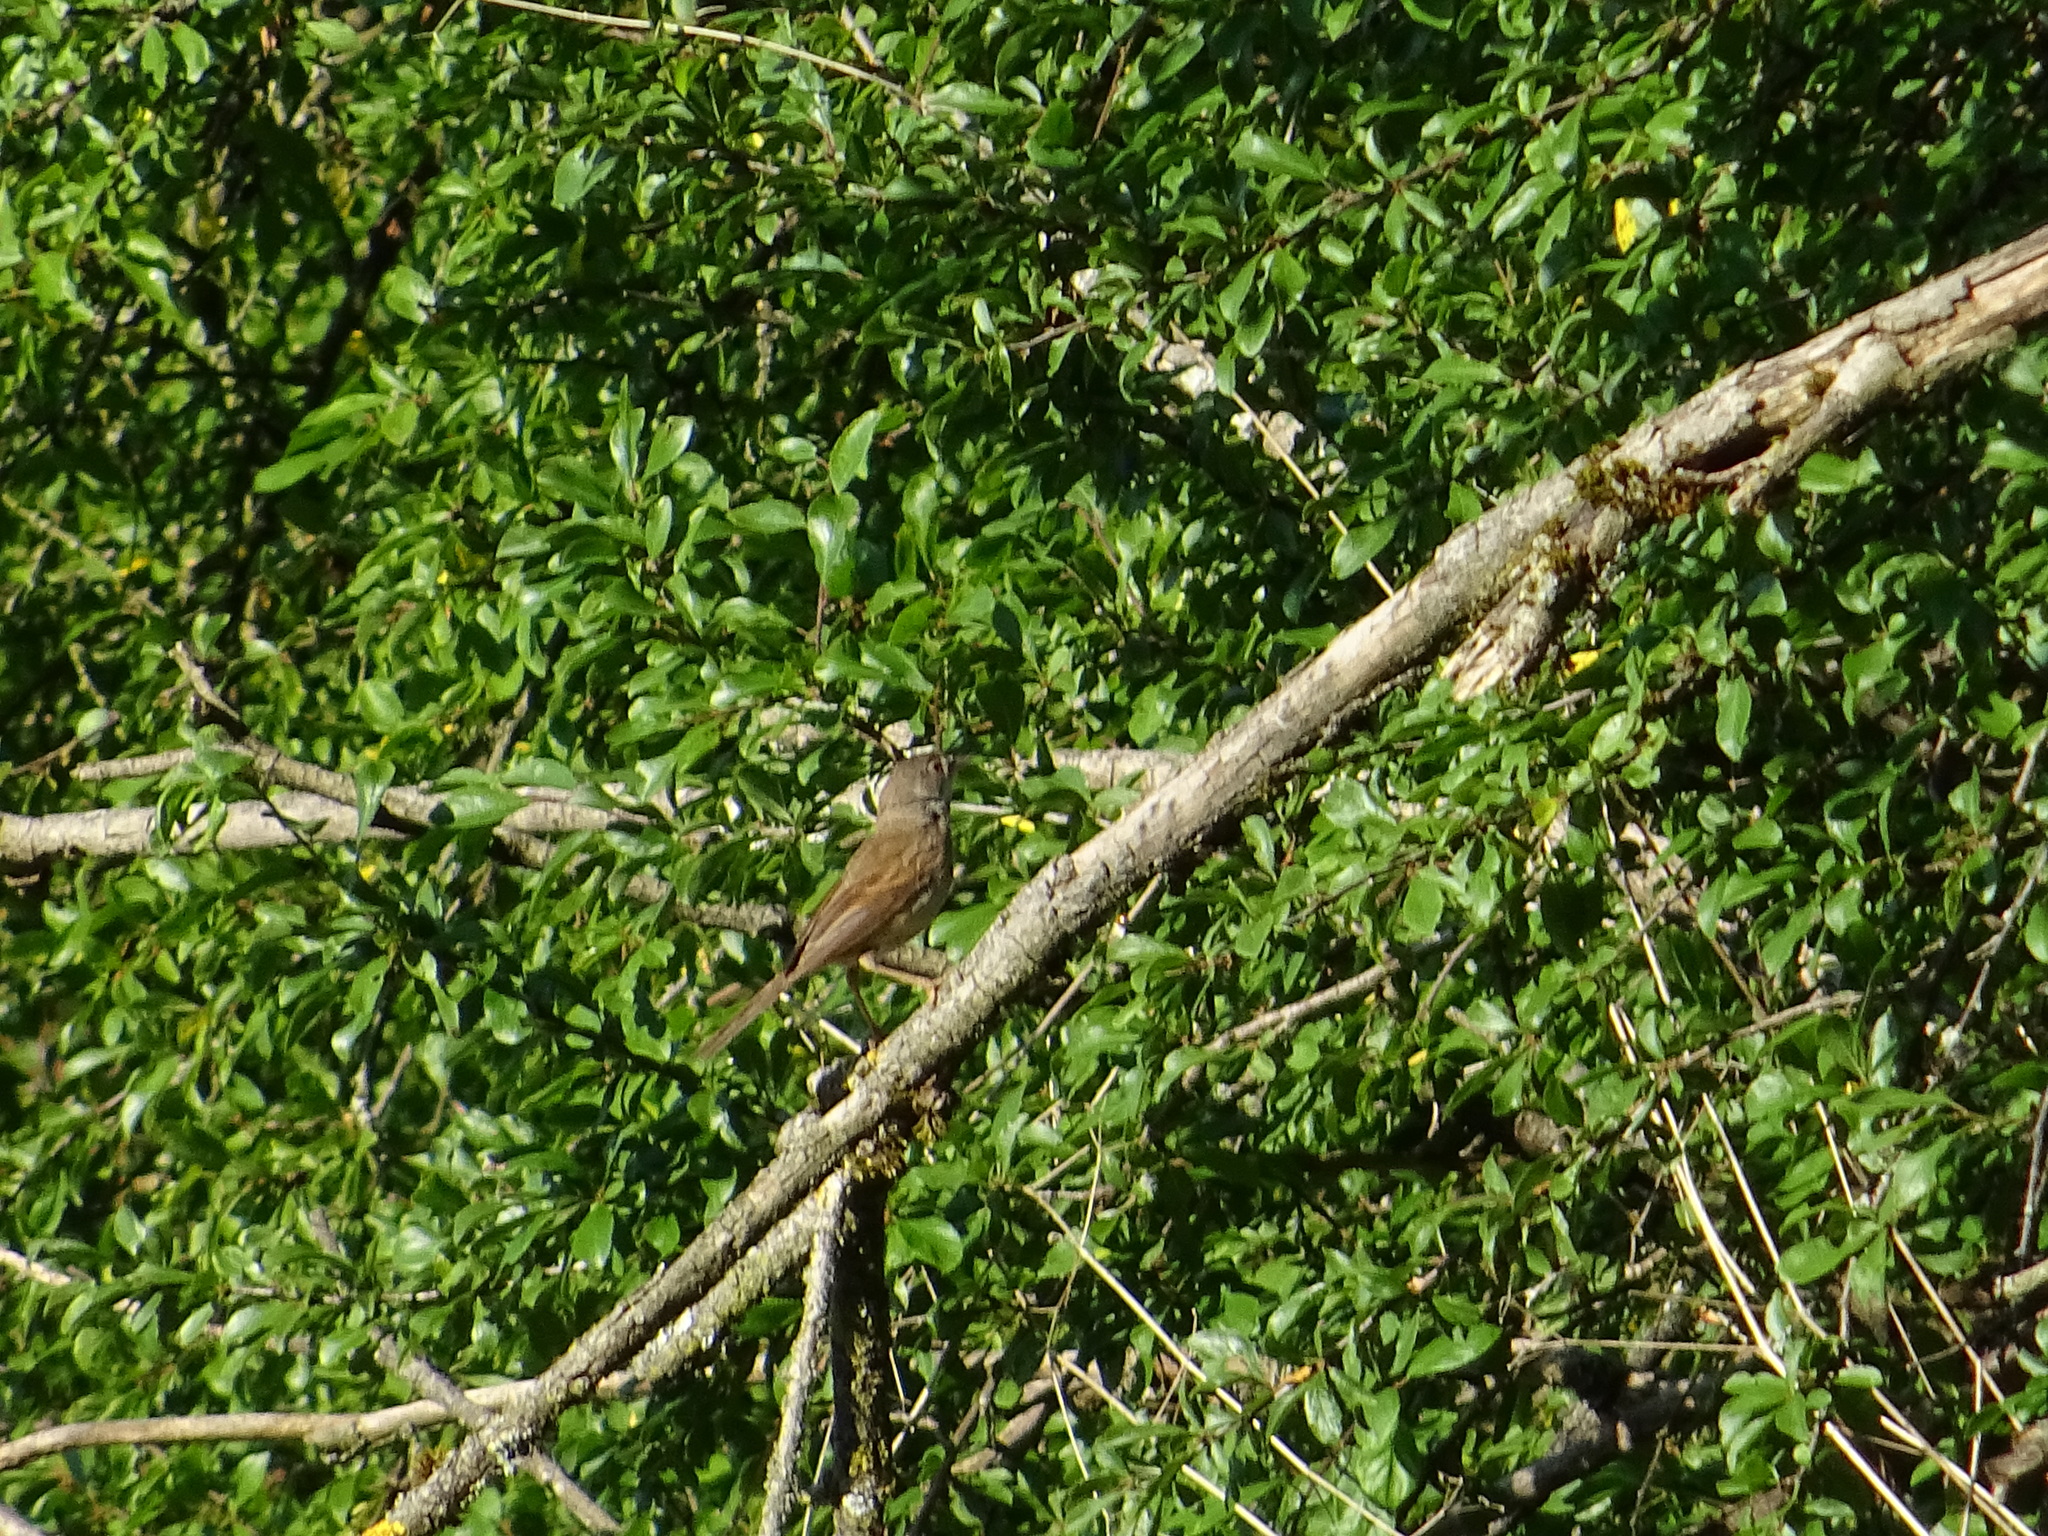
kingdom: Animalia
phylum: Chordata
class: Aves
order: Passeriformes
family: Sylviidae
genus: Sylvia
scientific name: Sylvia communis
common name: Common whitethroat
